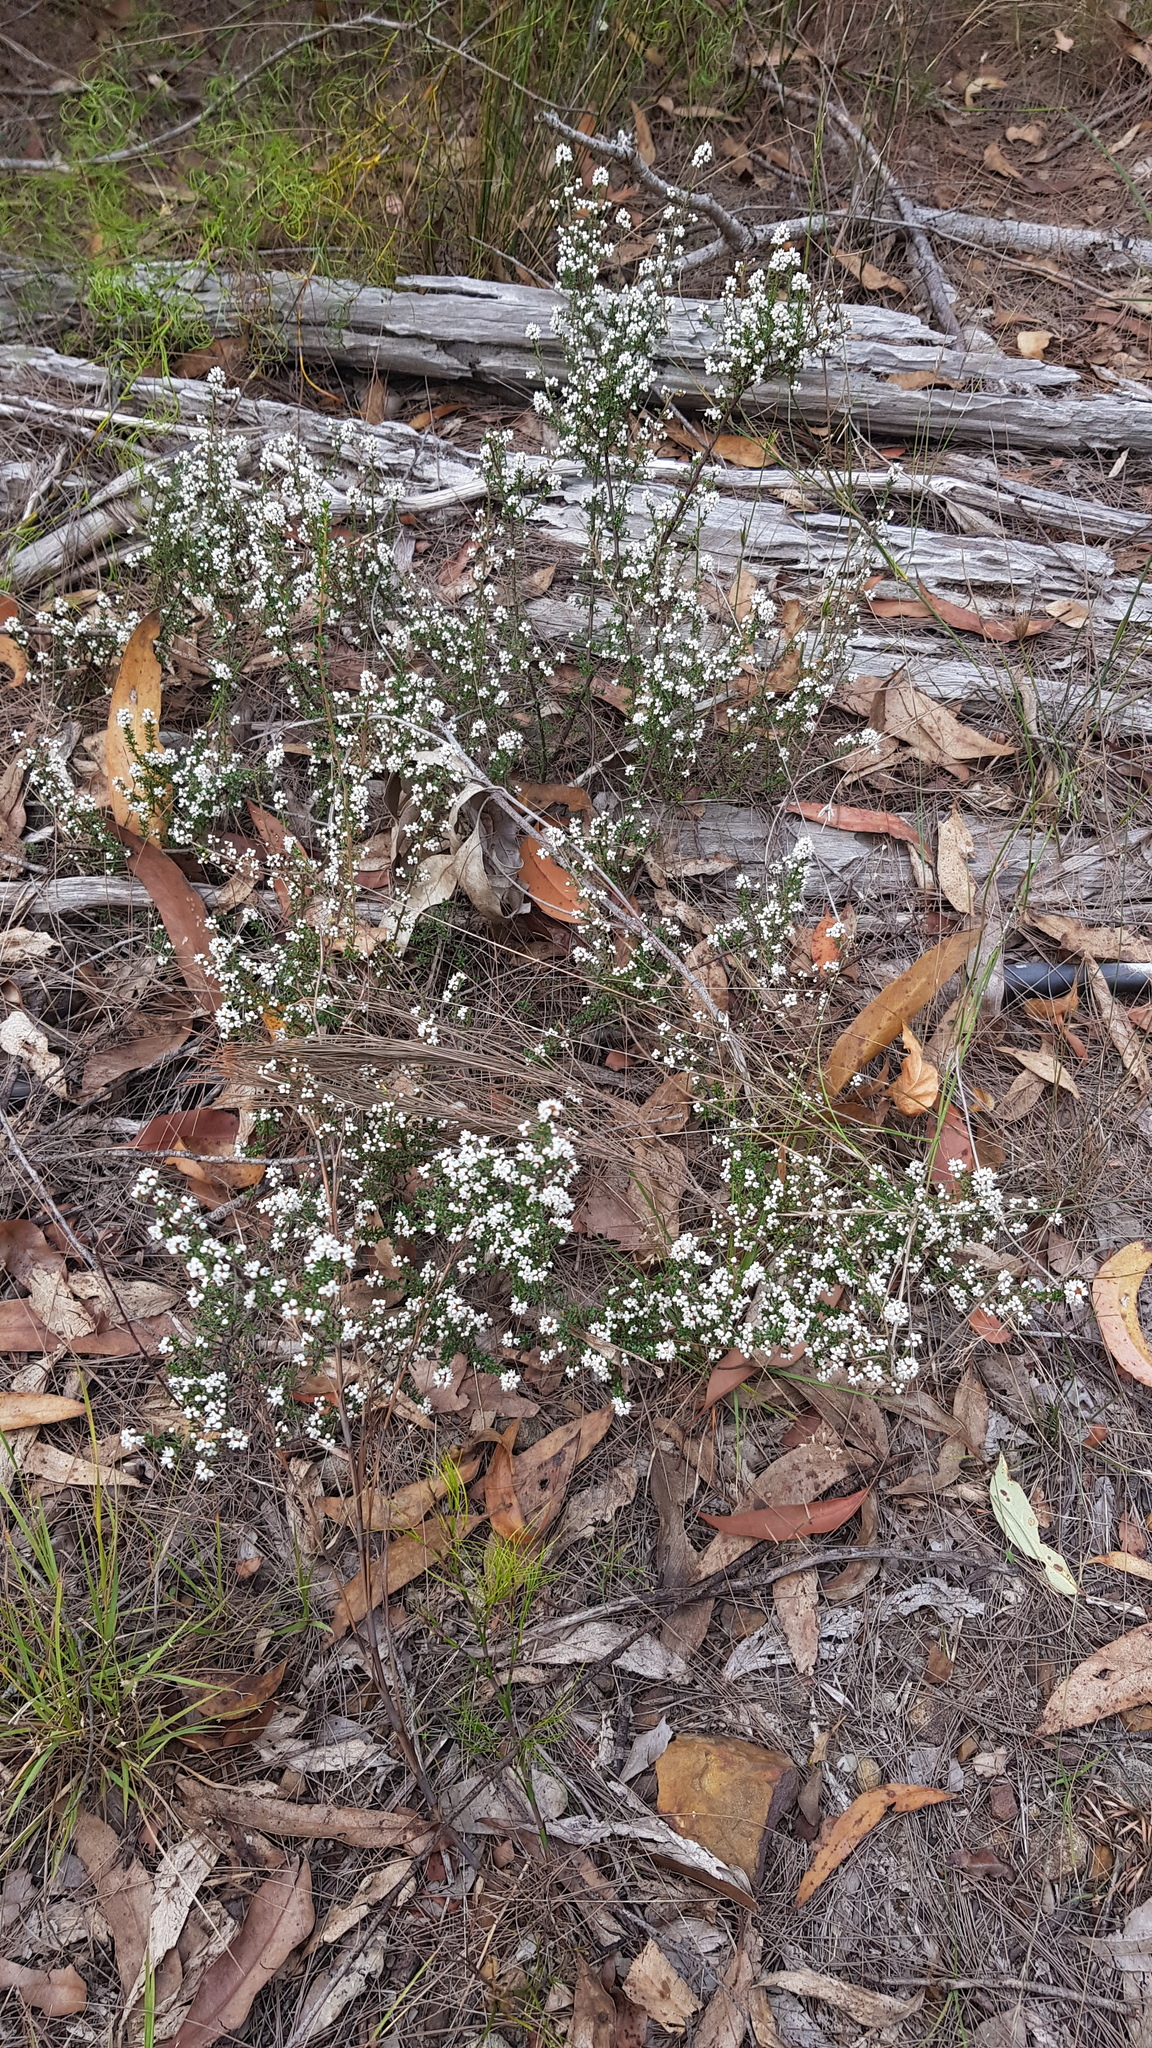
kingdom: Plantae
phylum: Tracheophyta
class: Magnoliopsida
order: Rosales
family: Rhamnaceae
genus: Cryptandra
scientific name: Cryptandra amara
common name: Bitter cryptandra
